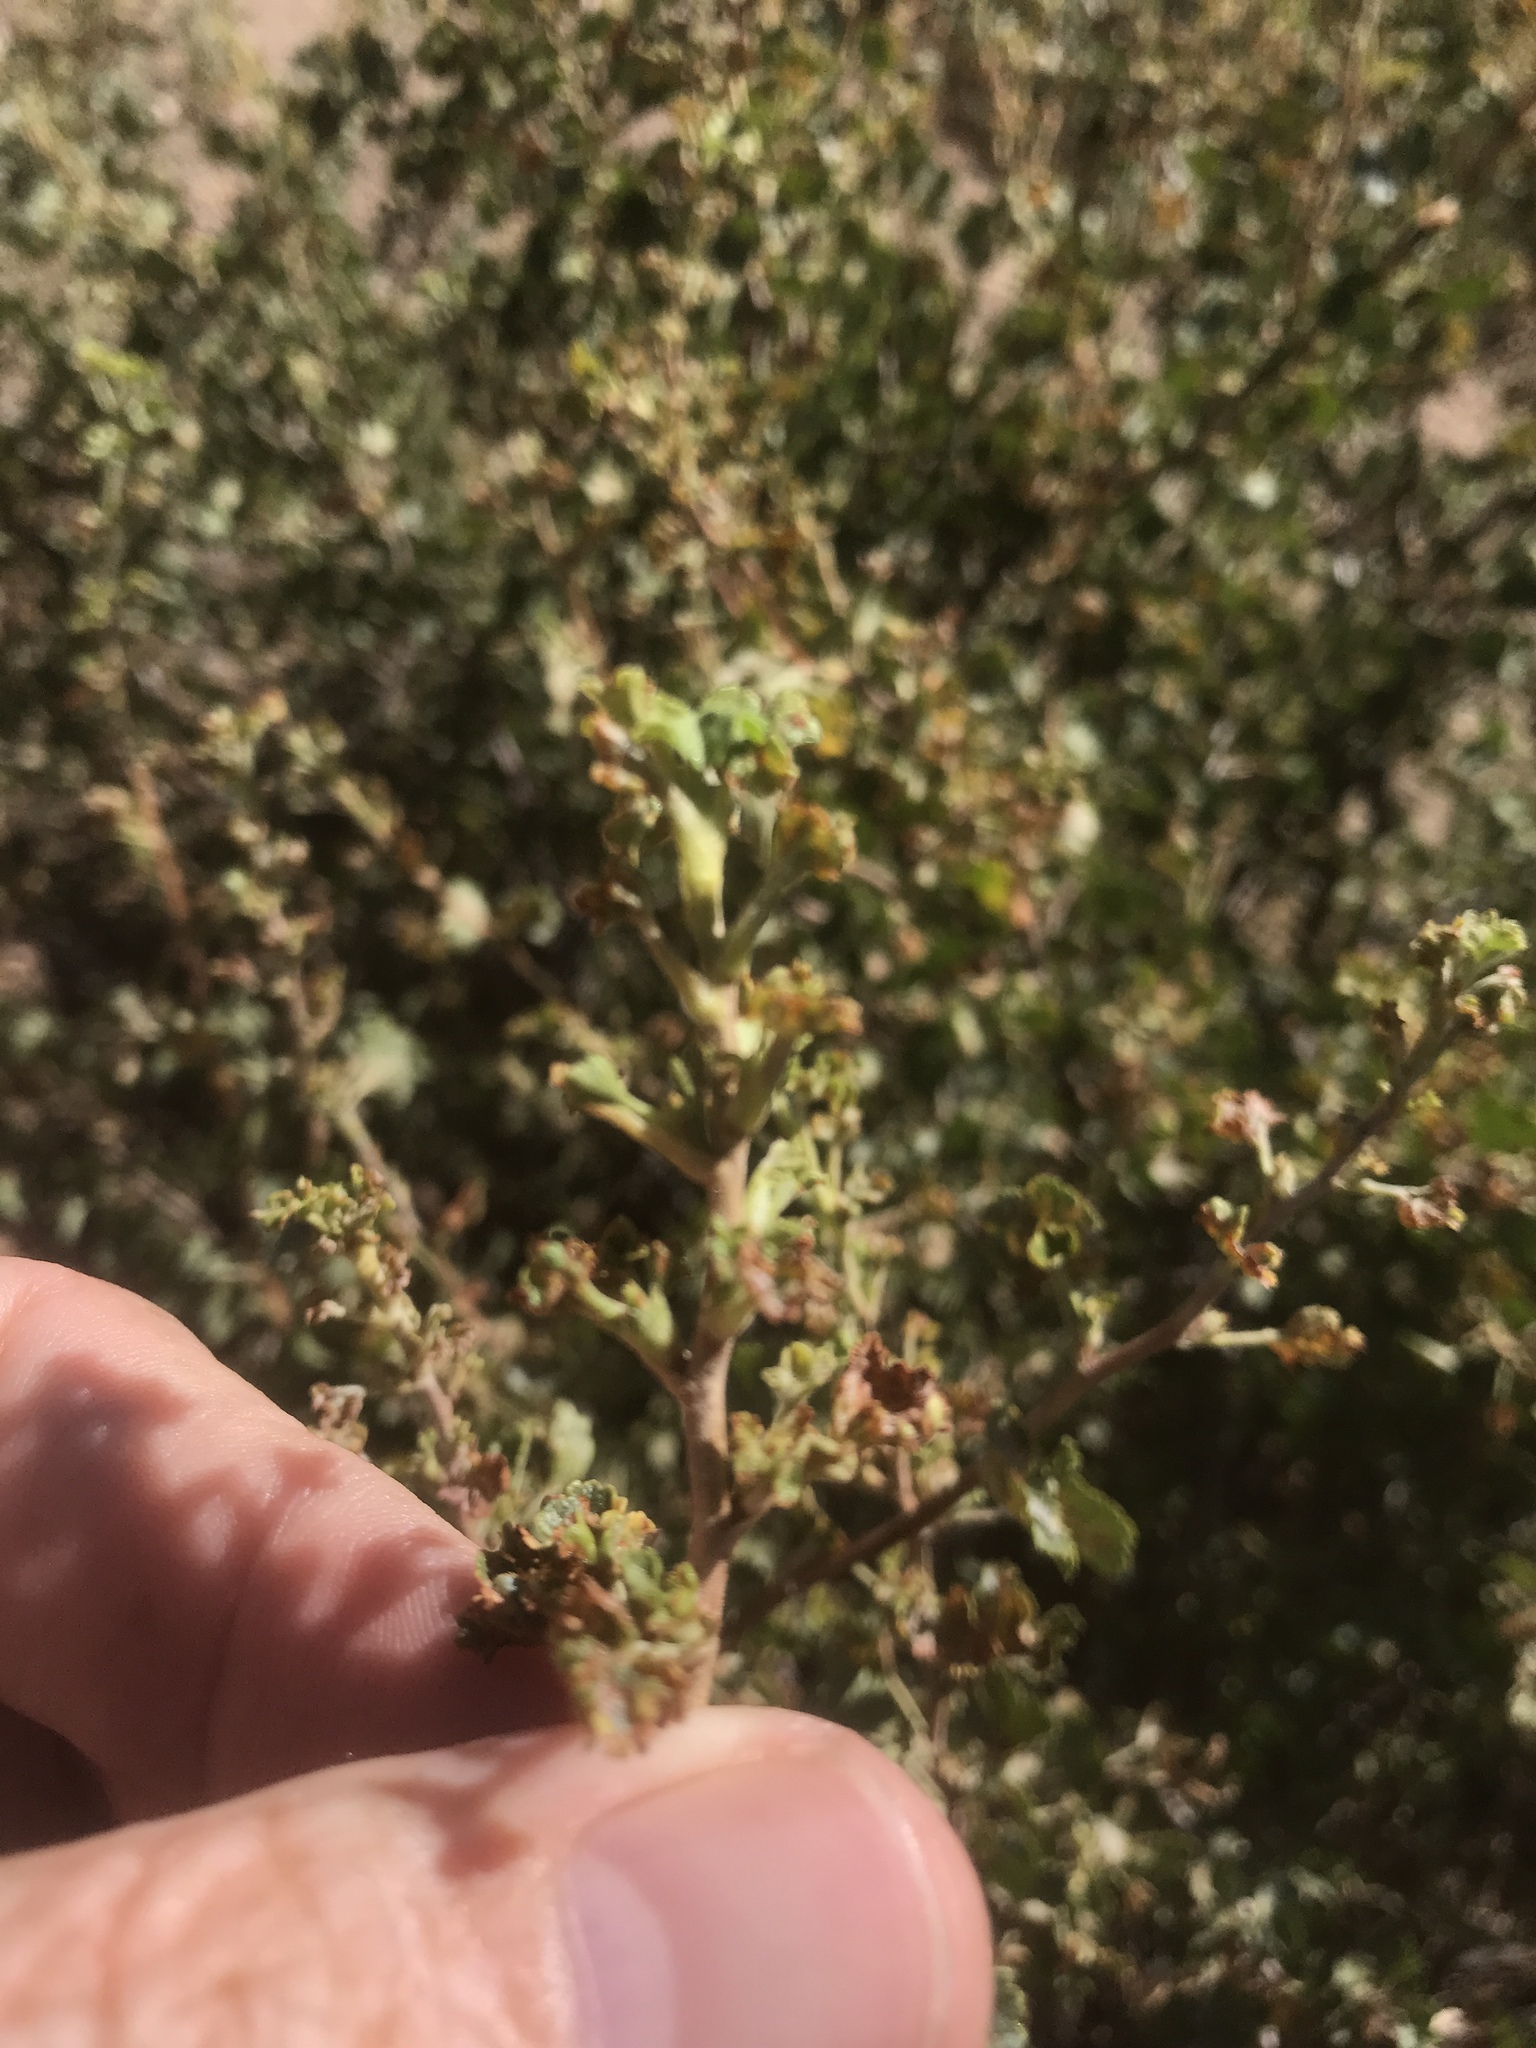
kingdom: Plantae
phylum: Tracheophyta
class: Magnoliopsida
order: Saxifragales
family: Grossulariaceae
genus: Ribes
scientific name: Ribes cereum
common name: Wax currant
